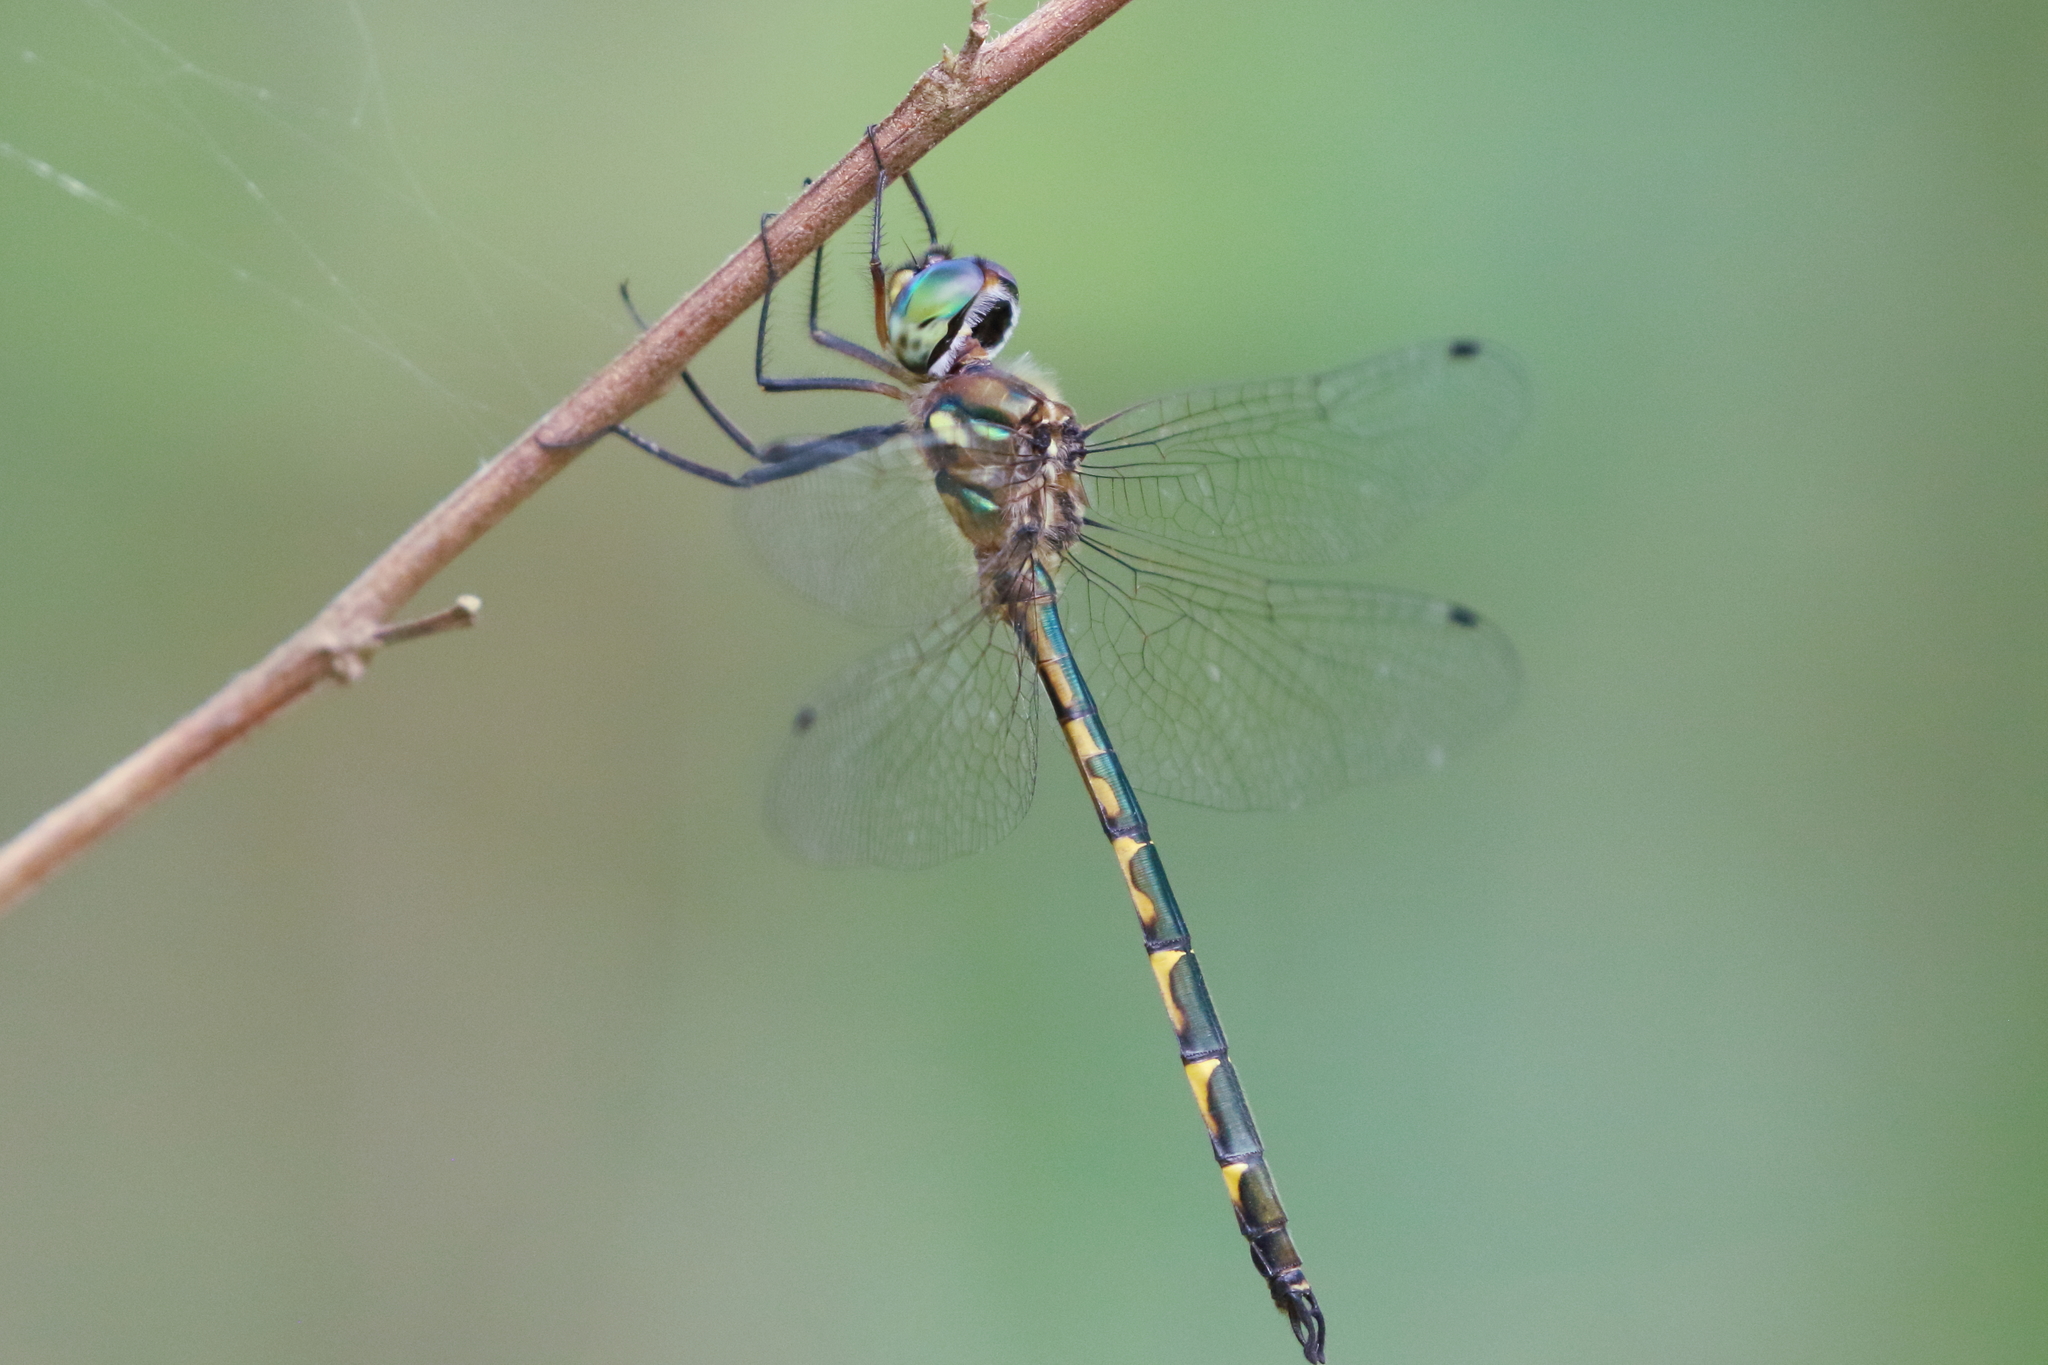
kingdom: Animalia
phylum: Arthropoda
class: Insecta
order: Odonata
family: Corduliidae
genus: Hemicordulia
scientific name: Hemicordulia australiae
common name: Sentry dragonfly
